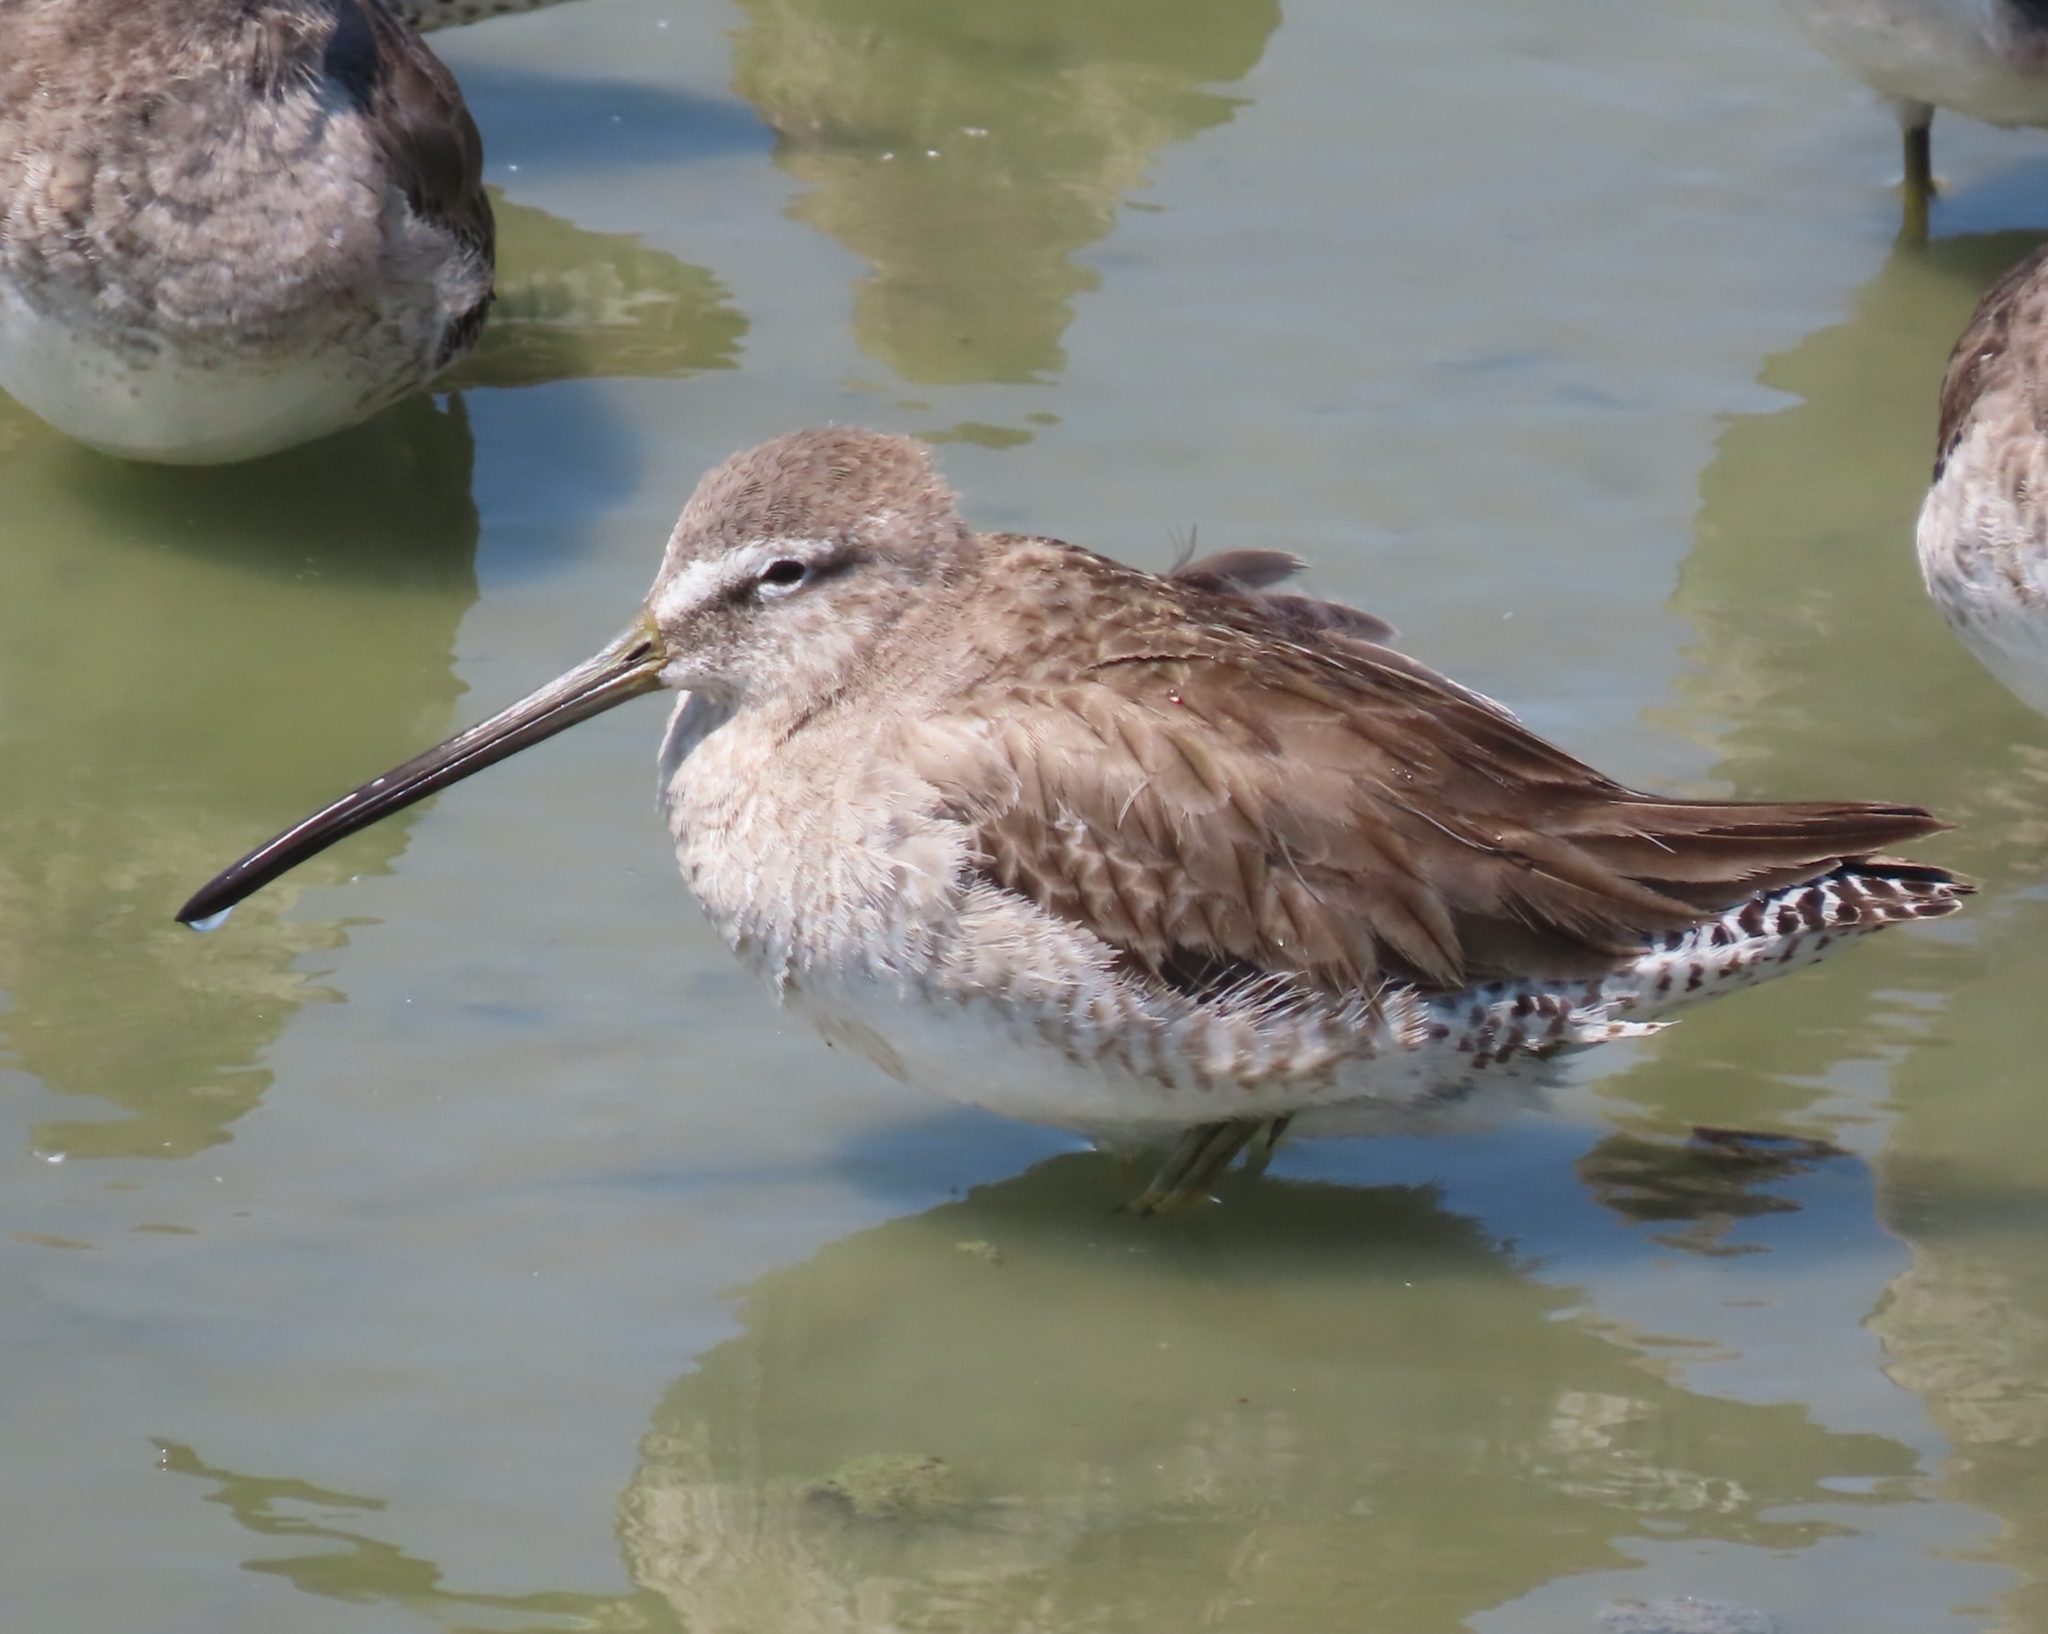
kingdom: Animalia
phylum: Chordata
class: Aves
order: Charadriiformes
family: Scolopacidae
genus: Limnodromus
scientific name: Limnodromus scolopaceus
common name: Long-billed dowitcher
